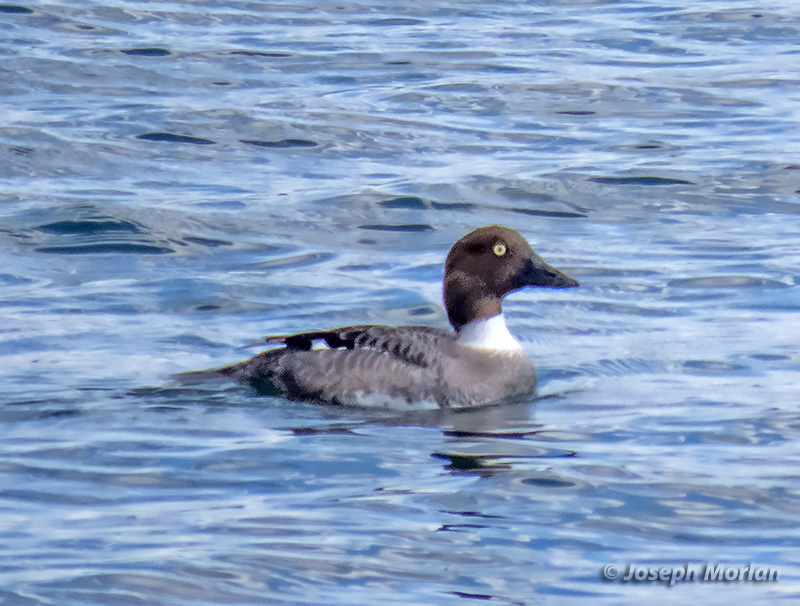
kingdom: Animalia
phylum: Chordata
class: Aves
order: Anseriformes
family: Anatidae
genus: Bucephala
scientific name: Bucephala clangula
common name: Common goldeneye
